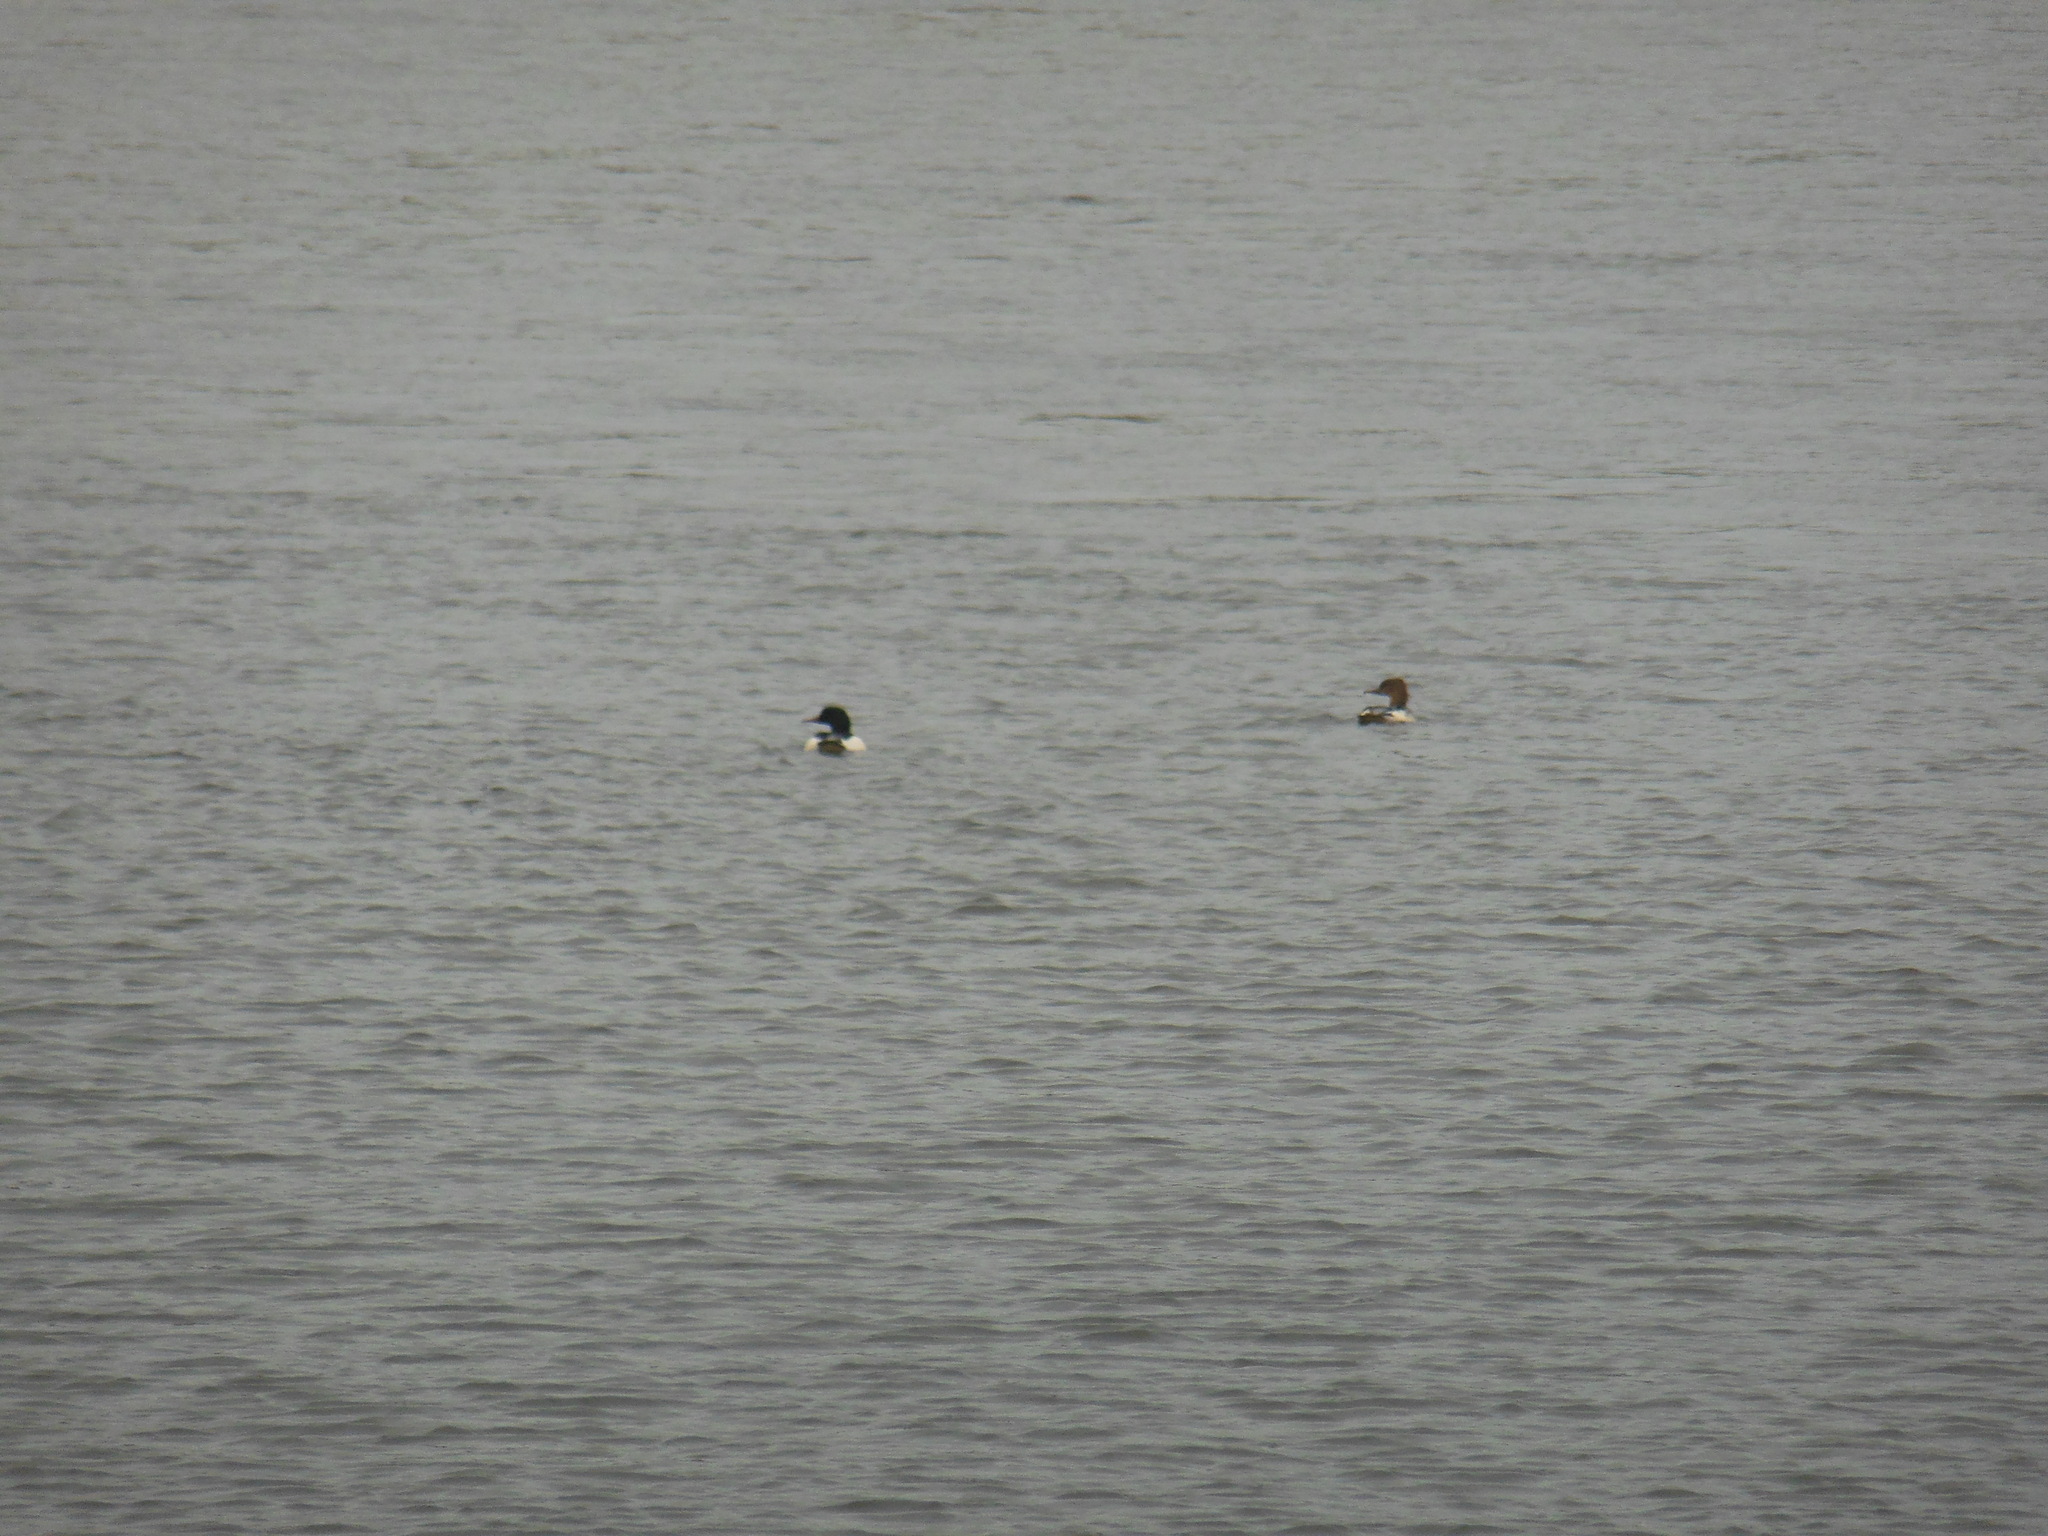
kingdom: Animalia
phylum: Chordata
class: Aves
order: Anseriformes
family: Anatidae
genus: Mergus
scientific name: Mergus merganser
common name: Common merganser
